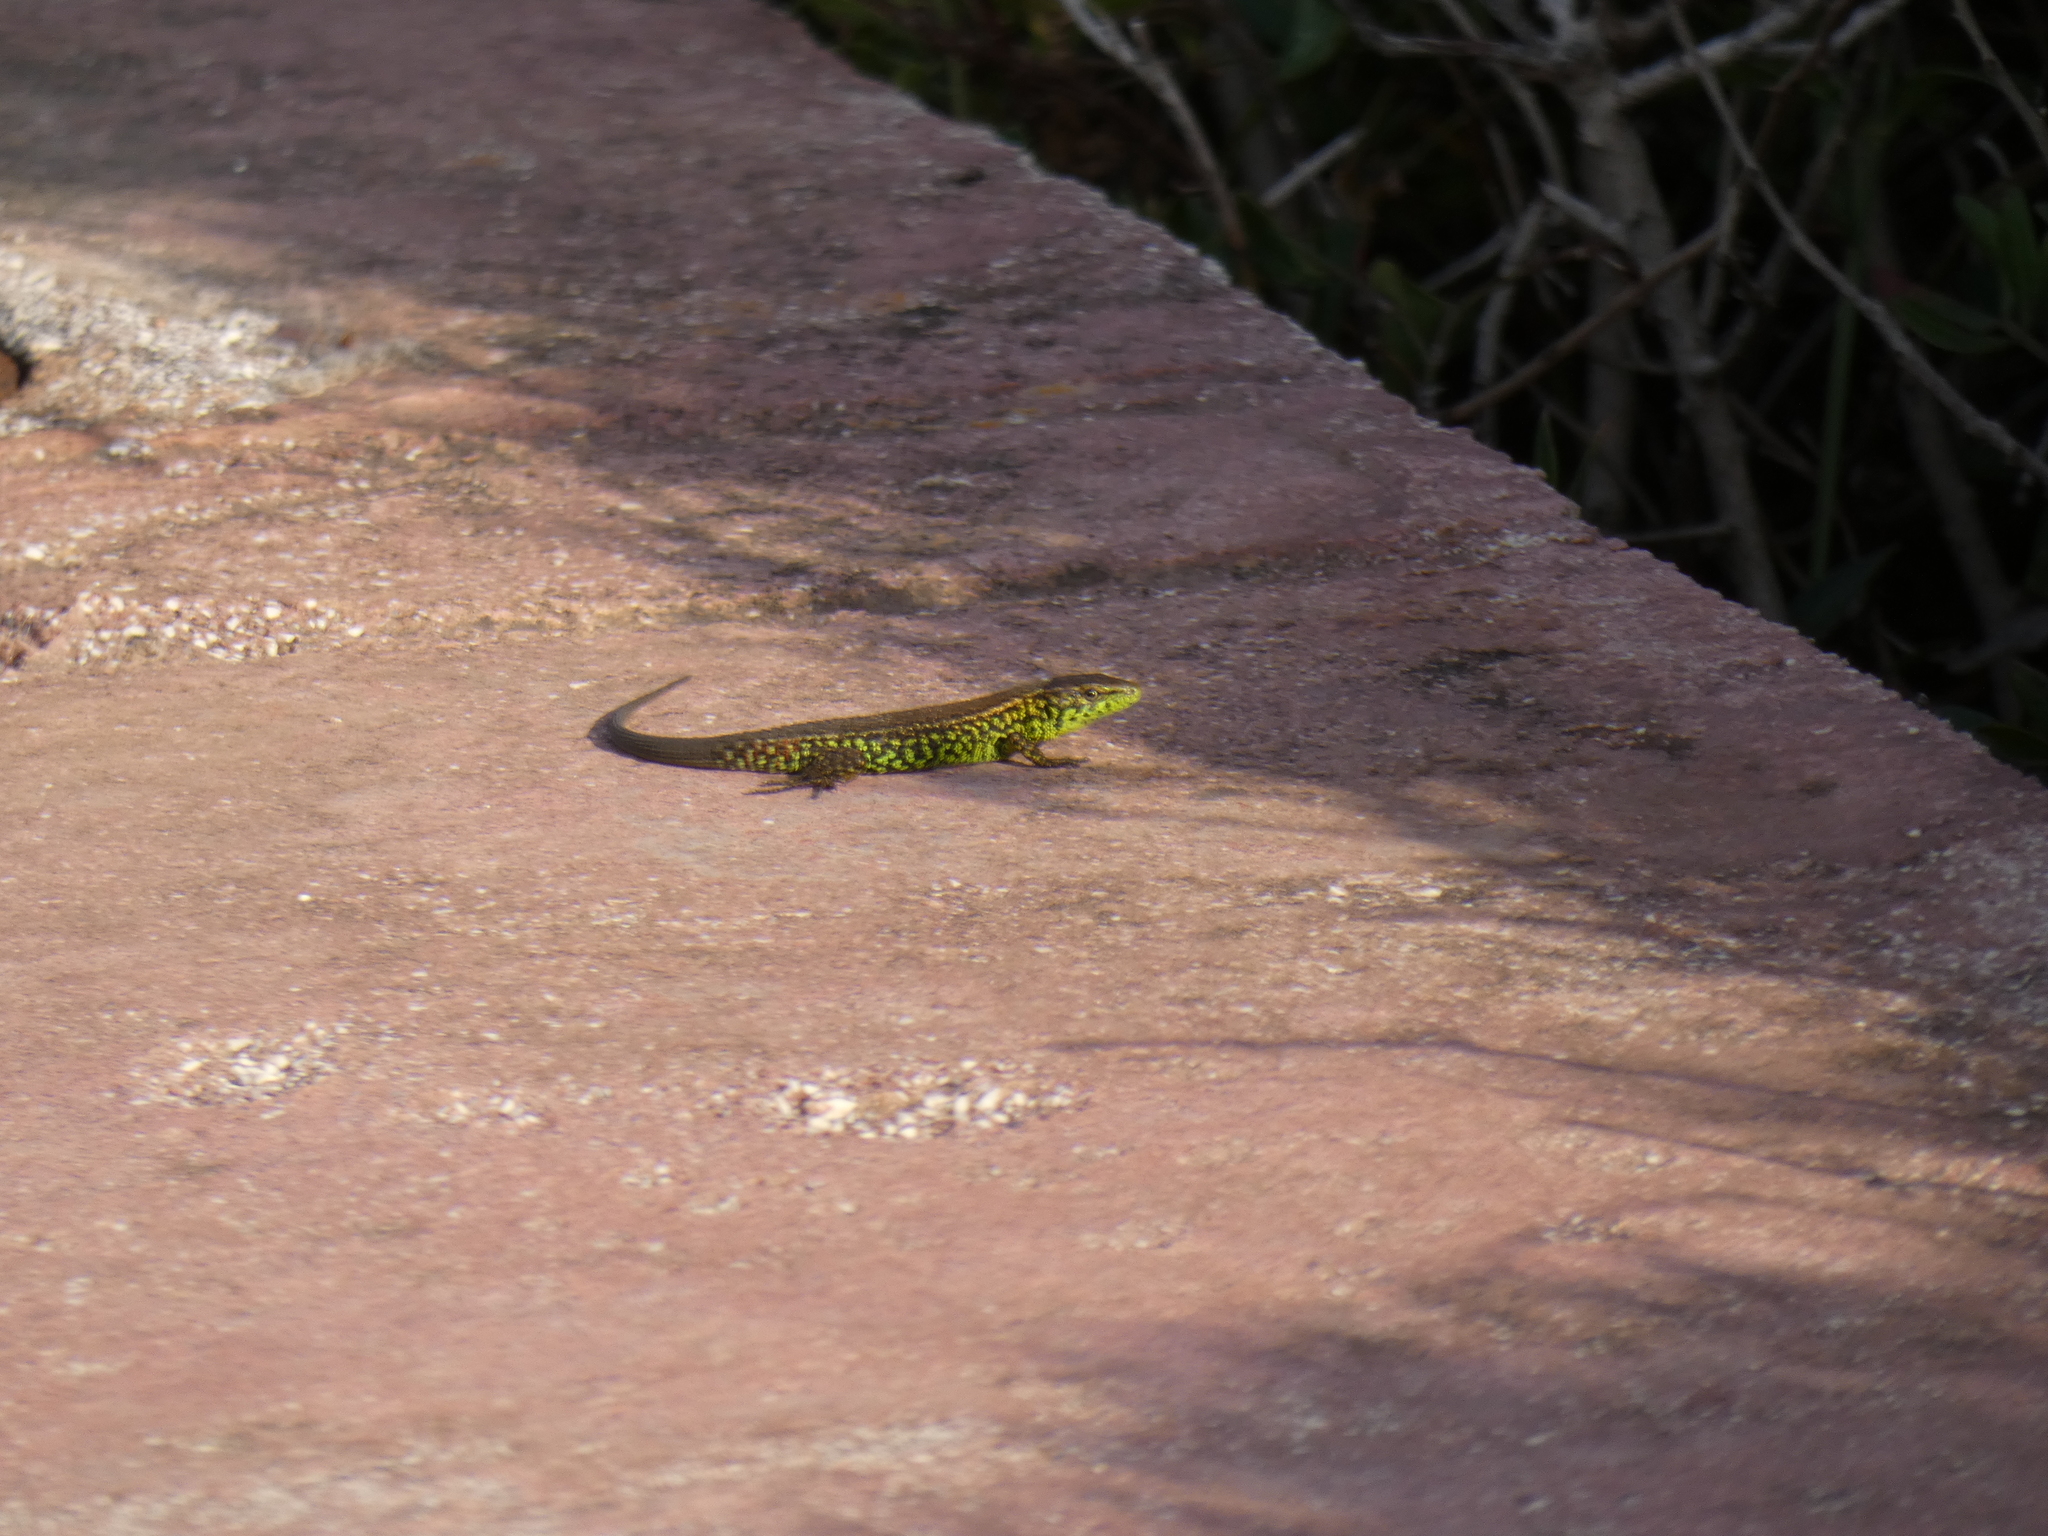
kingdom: Animalia
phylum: Chordata
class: Squamata
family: Lacertidae
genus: Algyroides
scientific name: Algyroides moreoticus
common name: Greek algyroides
